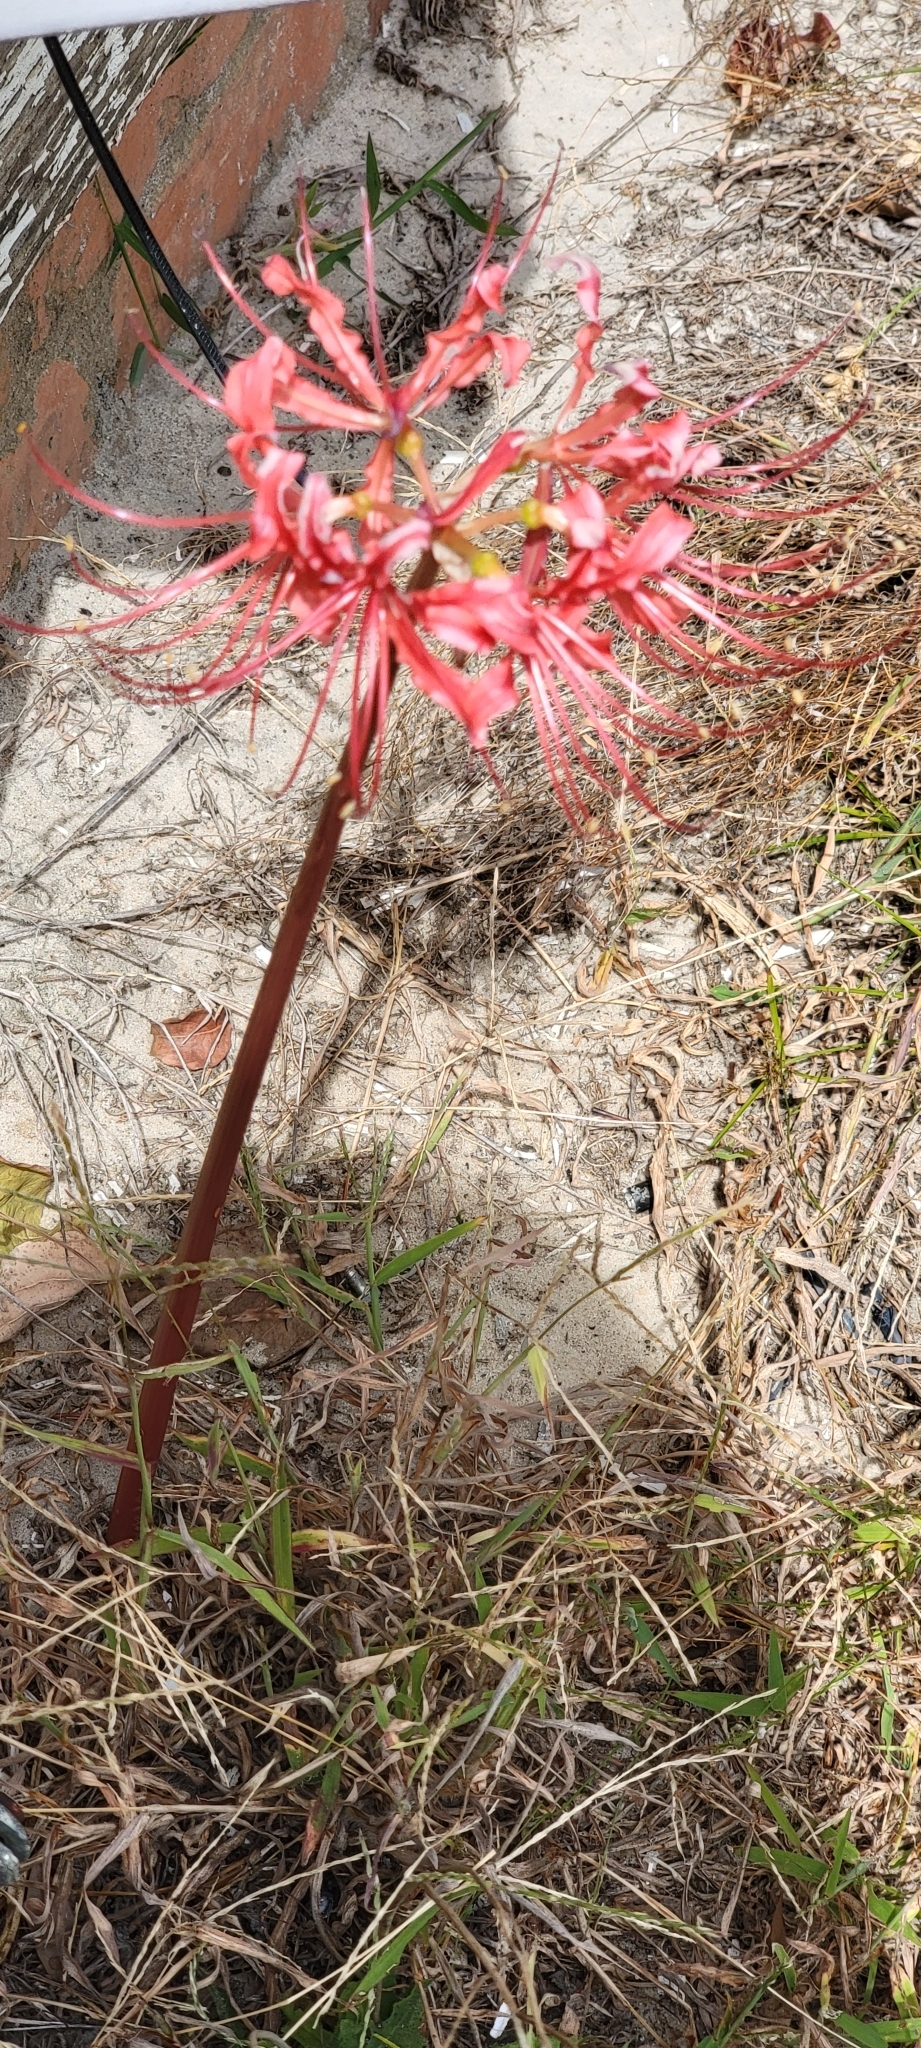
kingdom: Plantae
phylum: Tracheophyta
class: Liliopsida
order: Asparagales
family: Amaryllidaceae
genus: Lycoris
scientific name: Lycoris radiata
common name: Red spider lily
